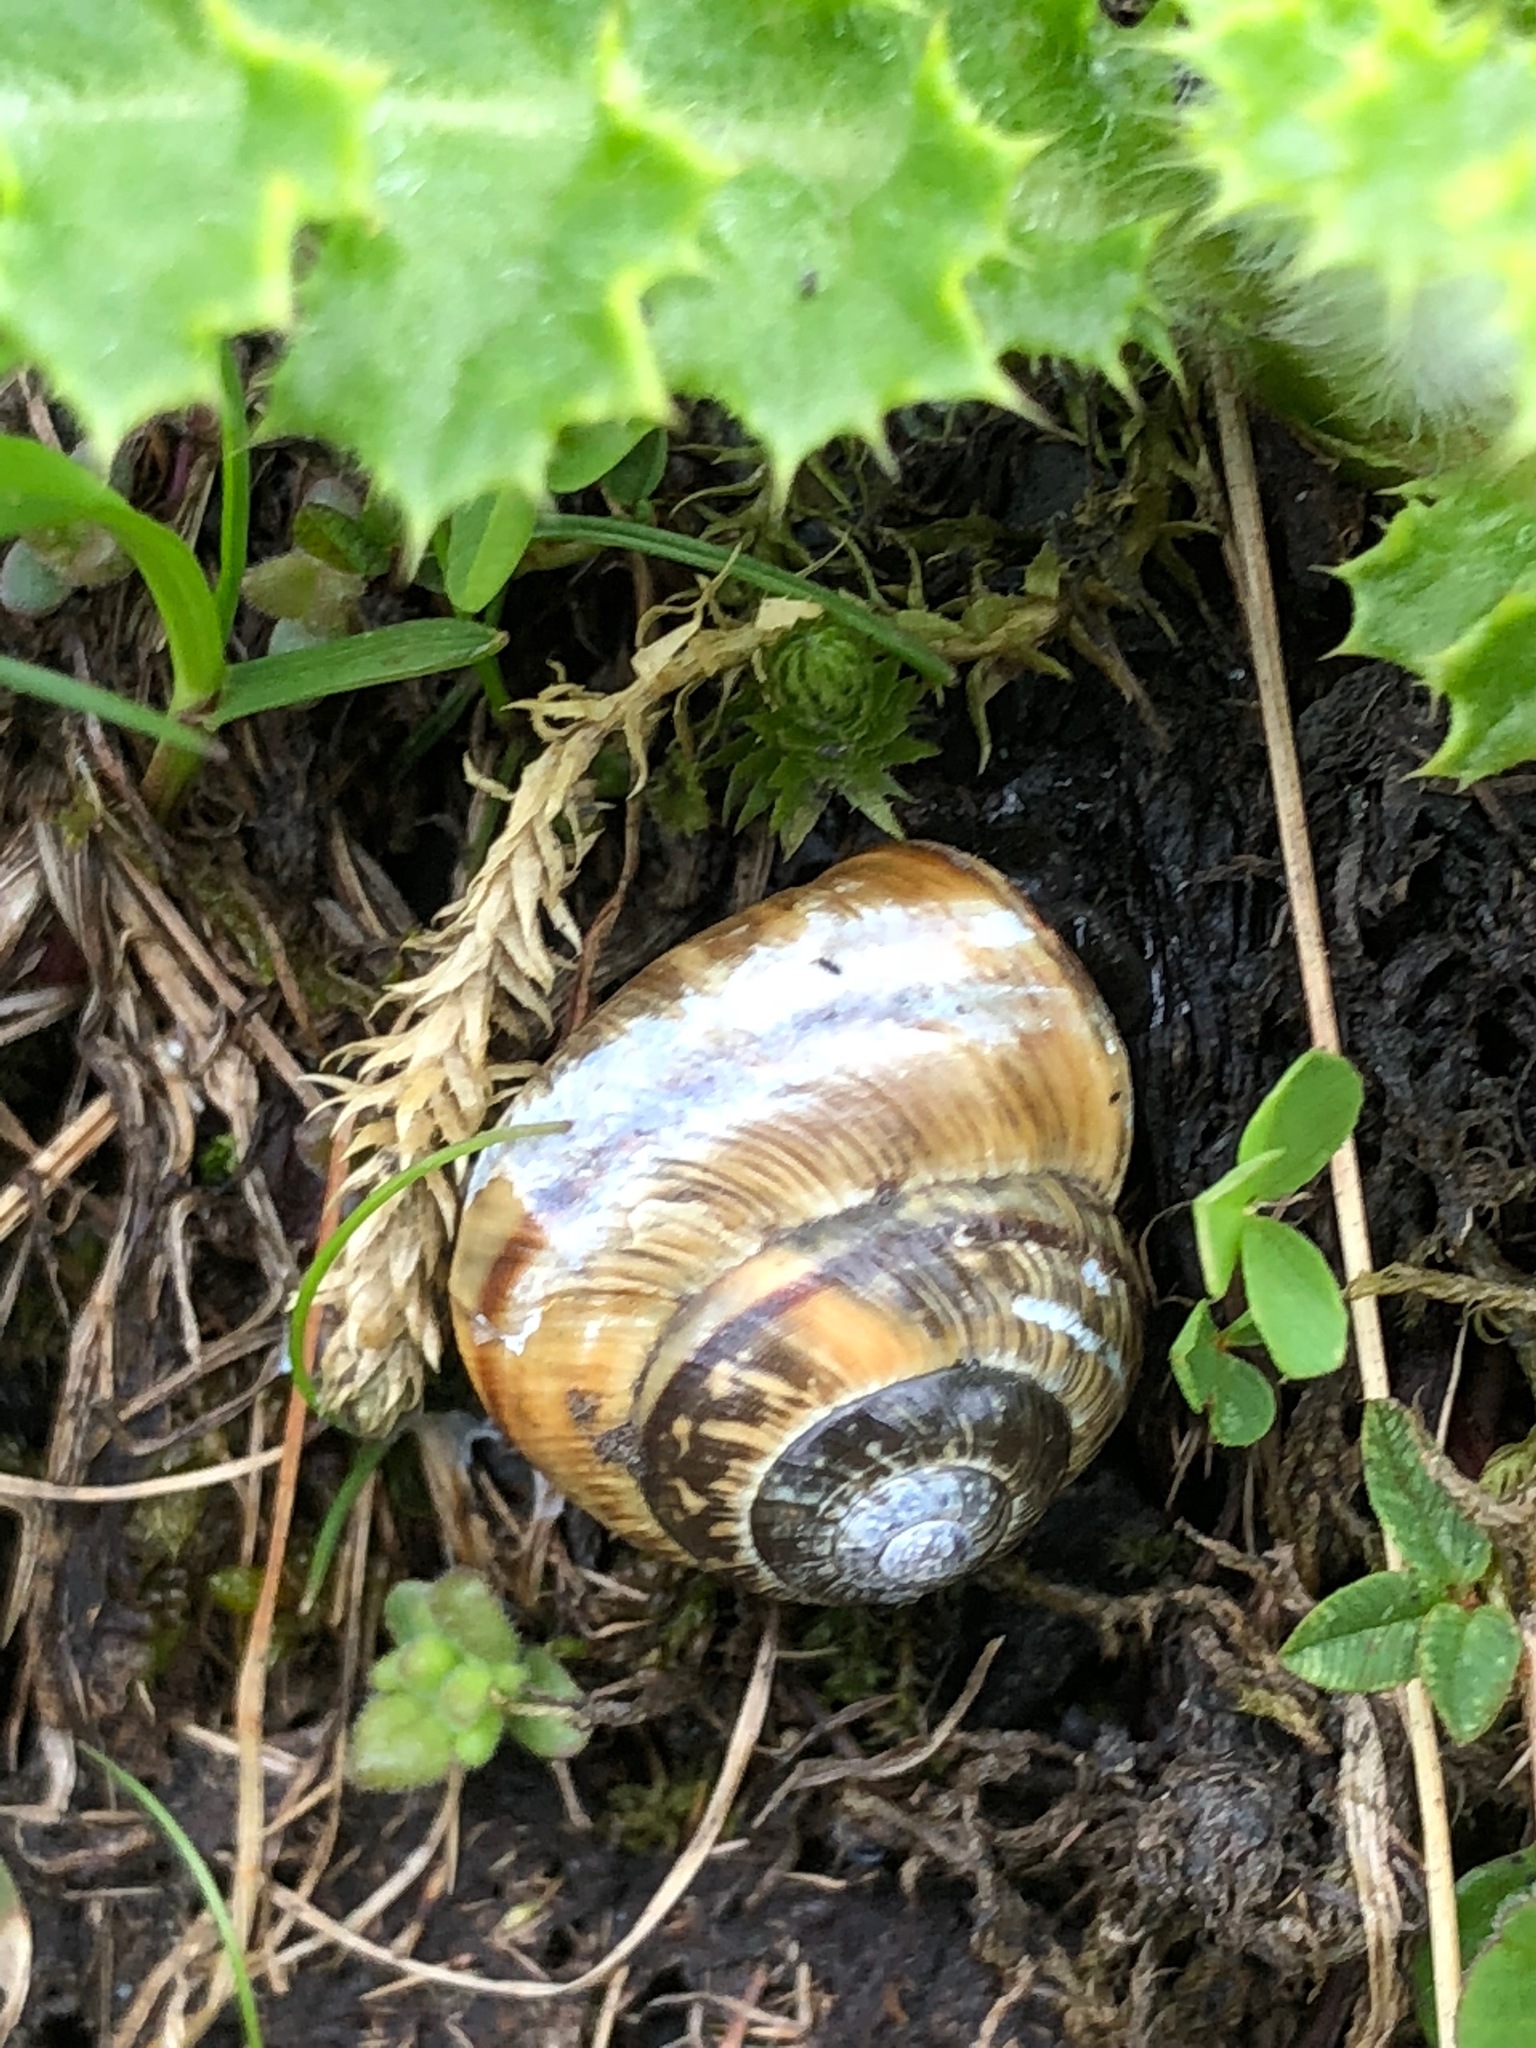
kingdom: Animalia
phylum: Mollusca
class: Gastropoda
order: Stylommatophora
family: Helicidae
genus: Arianta
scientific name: Arianta arbustorum
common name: Copse snail
